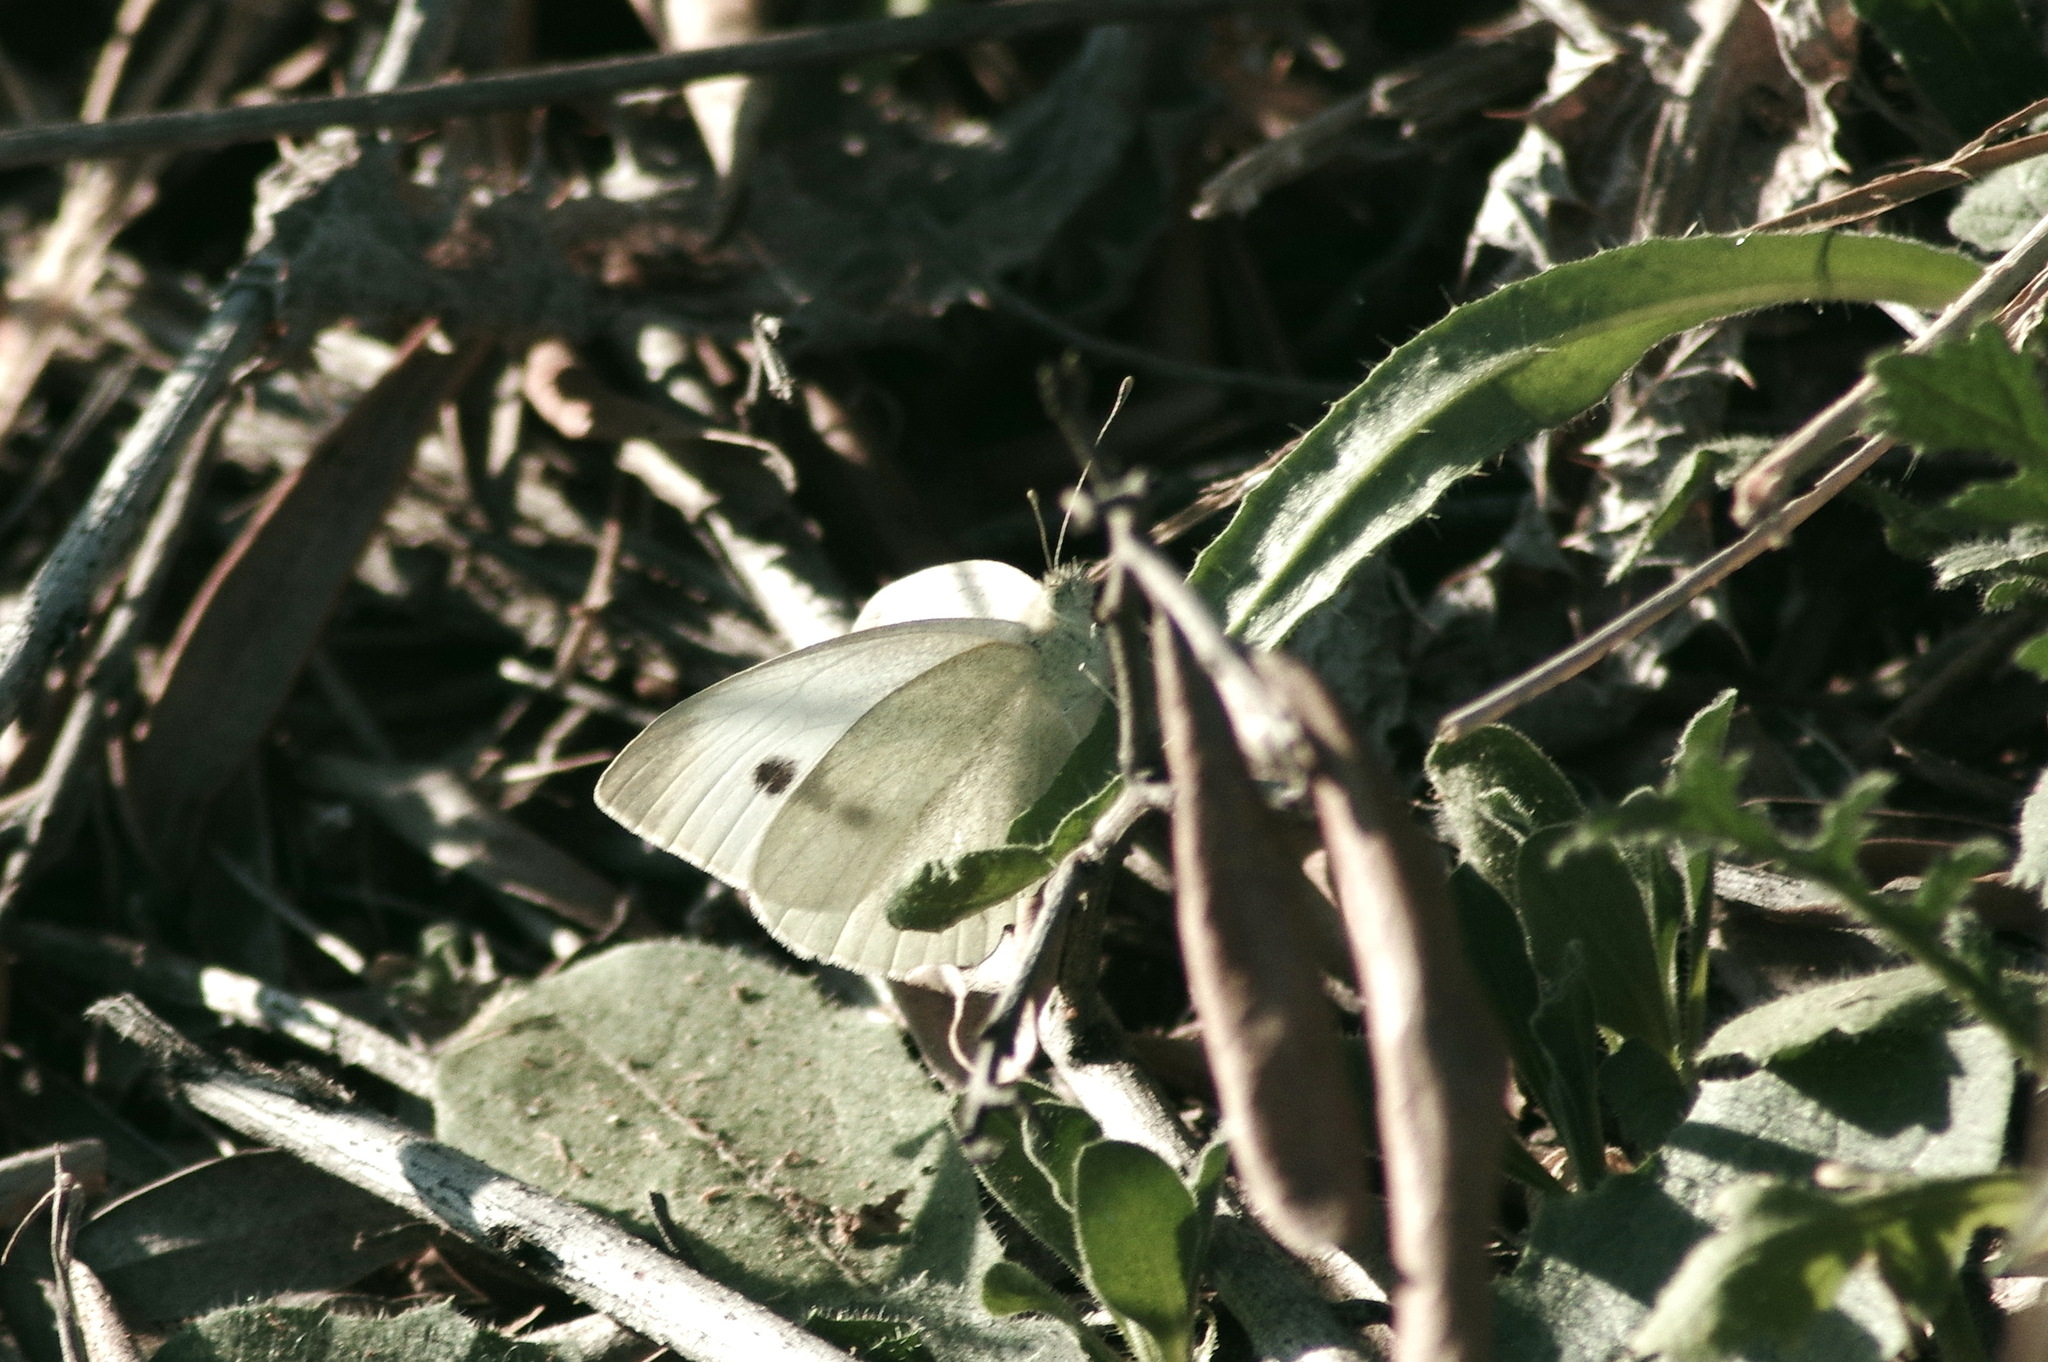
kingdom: Animalia
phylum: Arthropoda
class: Insecta
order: Lepidoptera
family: Pieridae
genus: Pieris
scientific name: Pieris rapae
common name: Small white
